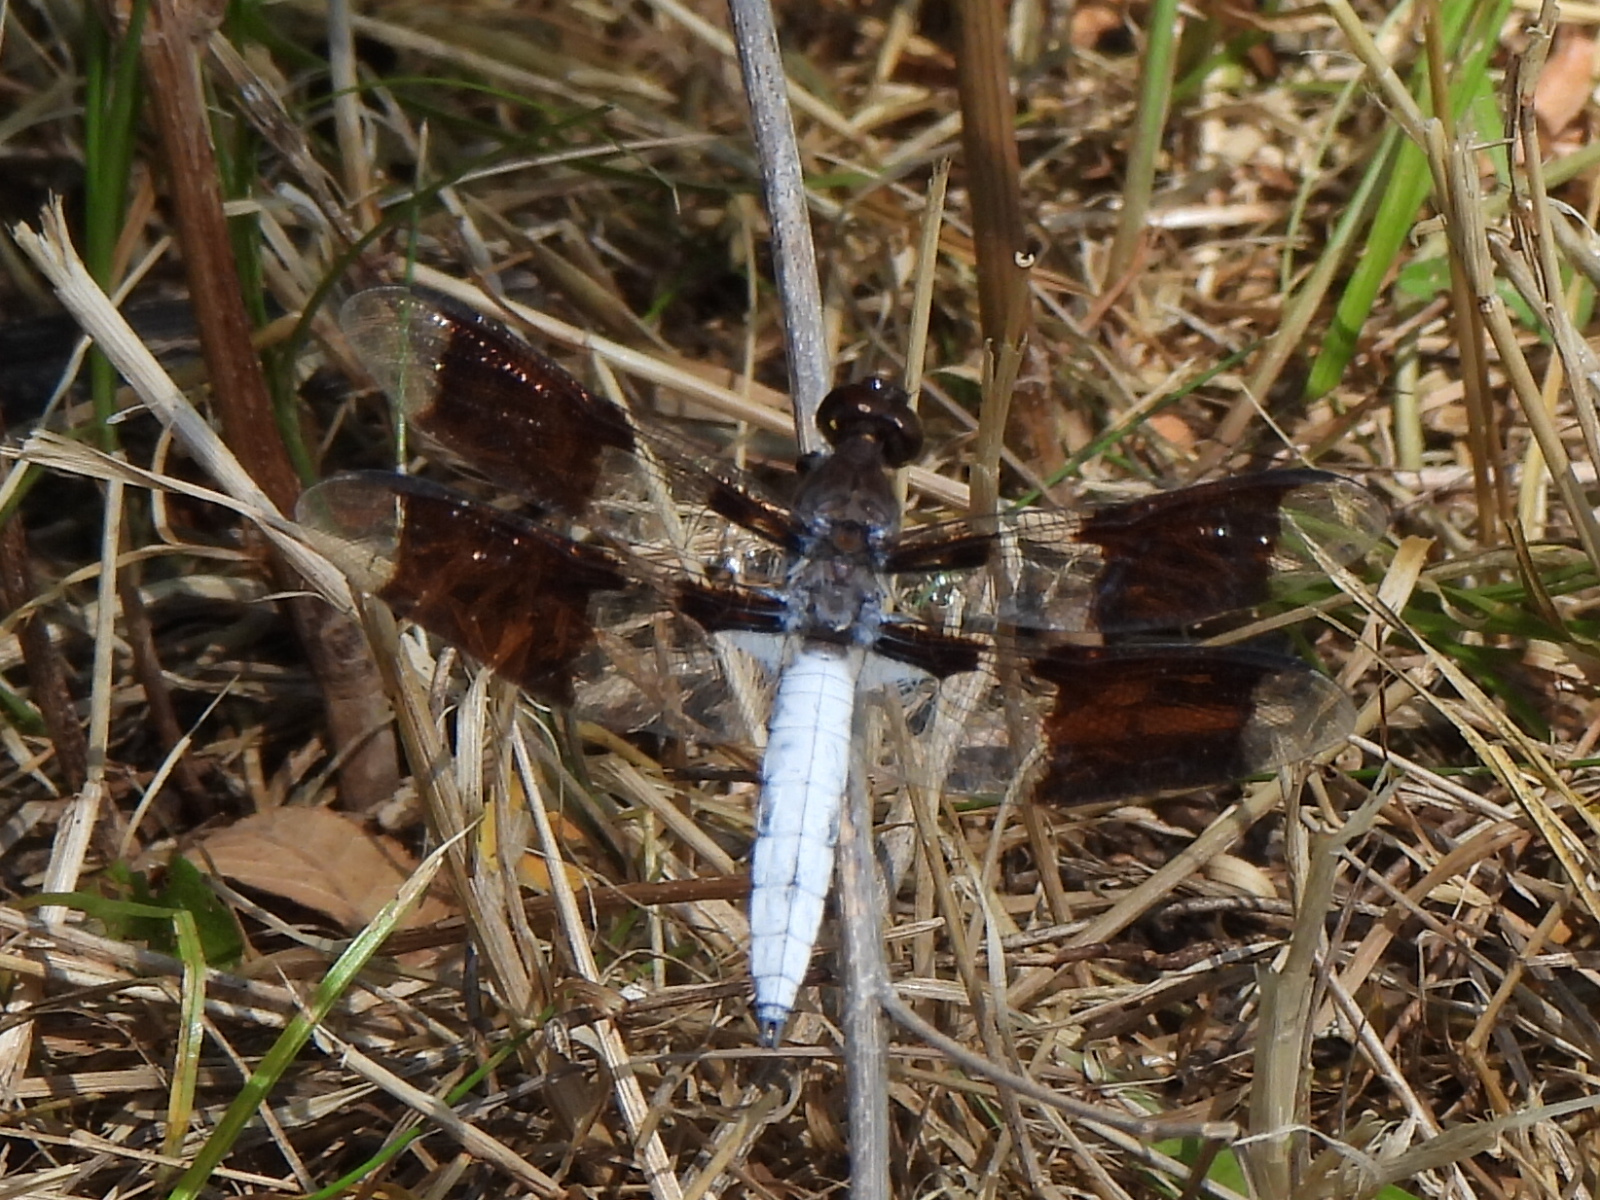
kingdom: Animalia
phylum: Arthropoda
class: Insecta
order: Odonata
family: Libellulidae
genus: Plathemis
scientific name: Plathemis lydia
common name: Common whitetail
